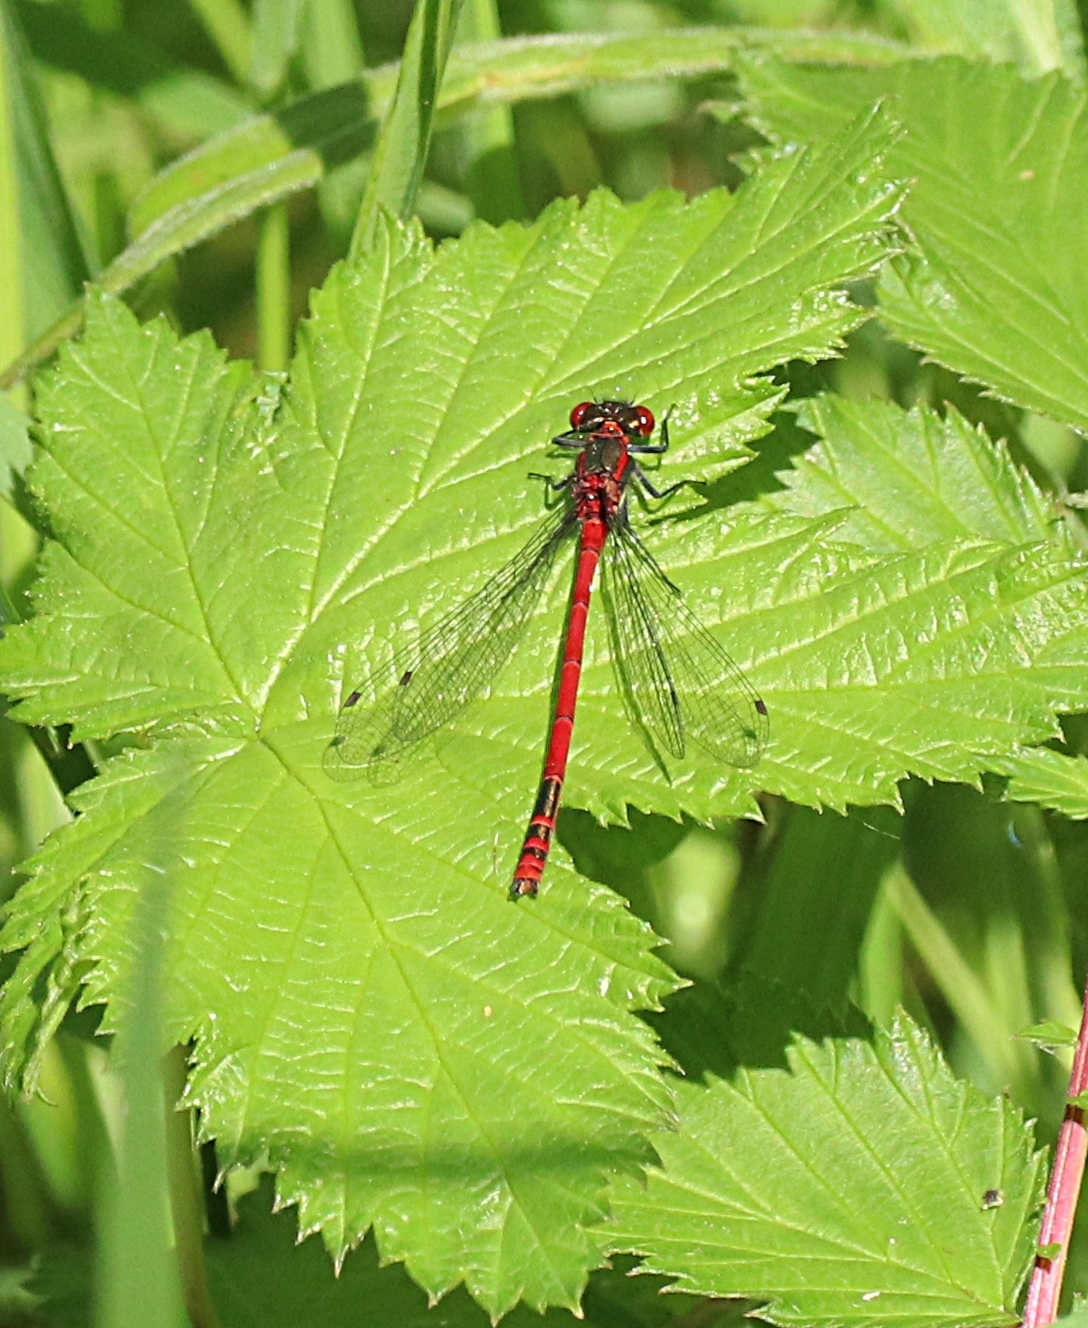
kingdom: Animalia
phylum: Arthropoda
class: Insecta
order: Odonata
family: Coenagrionidae
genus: Pyrrhosoma
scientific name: Pyrrhosoma nymphula
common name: Large red damsel
